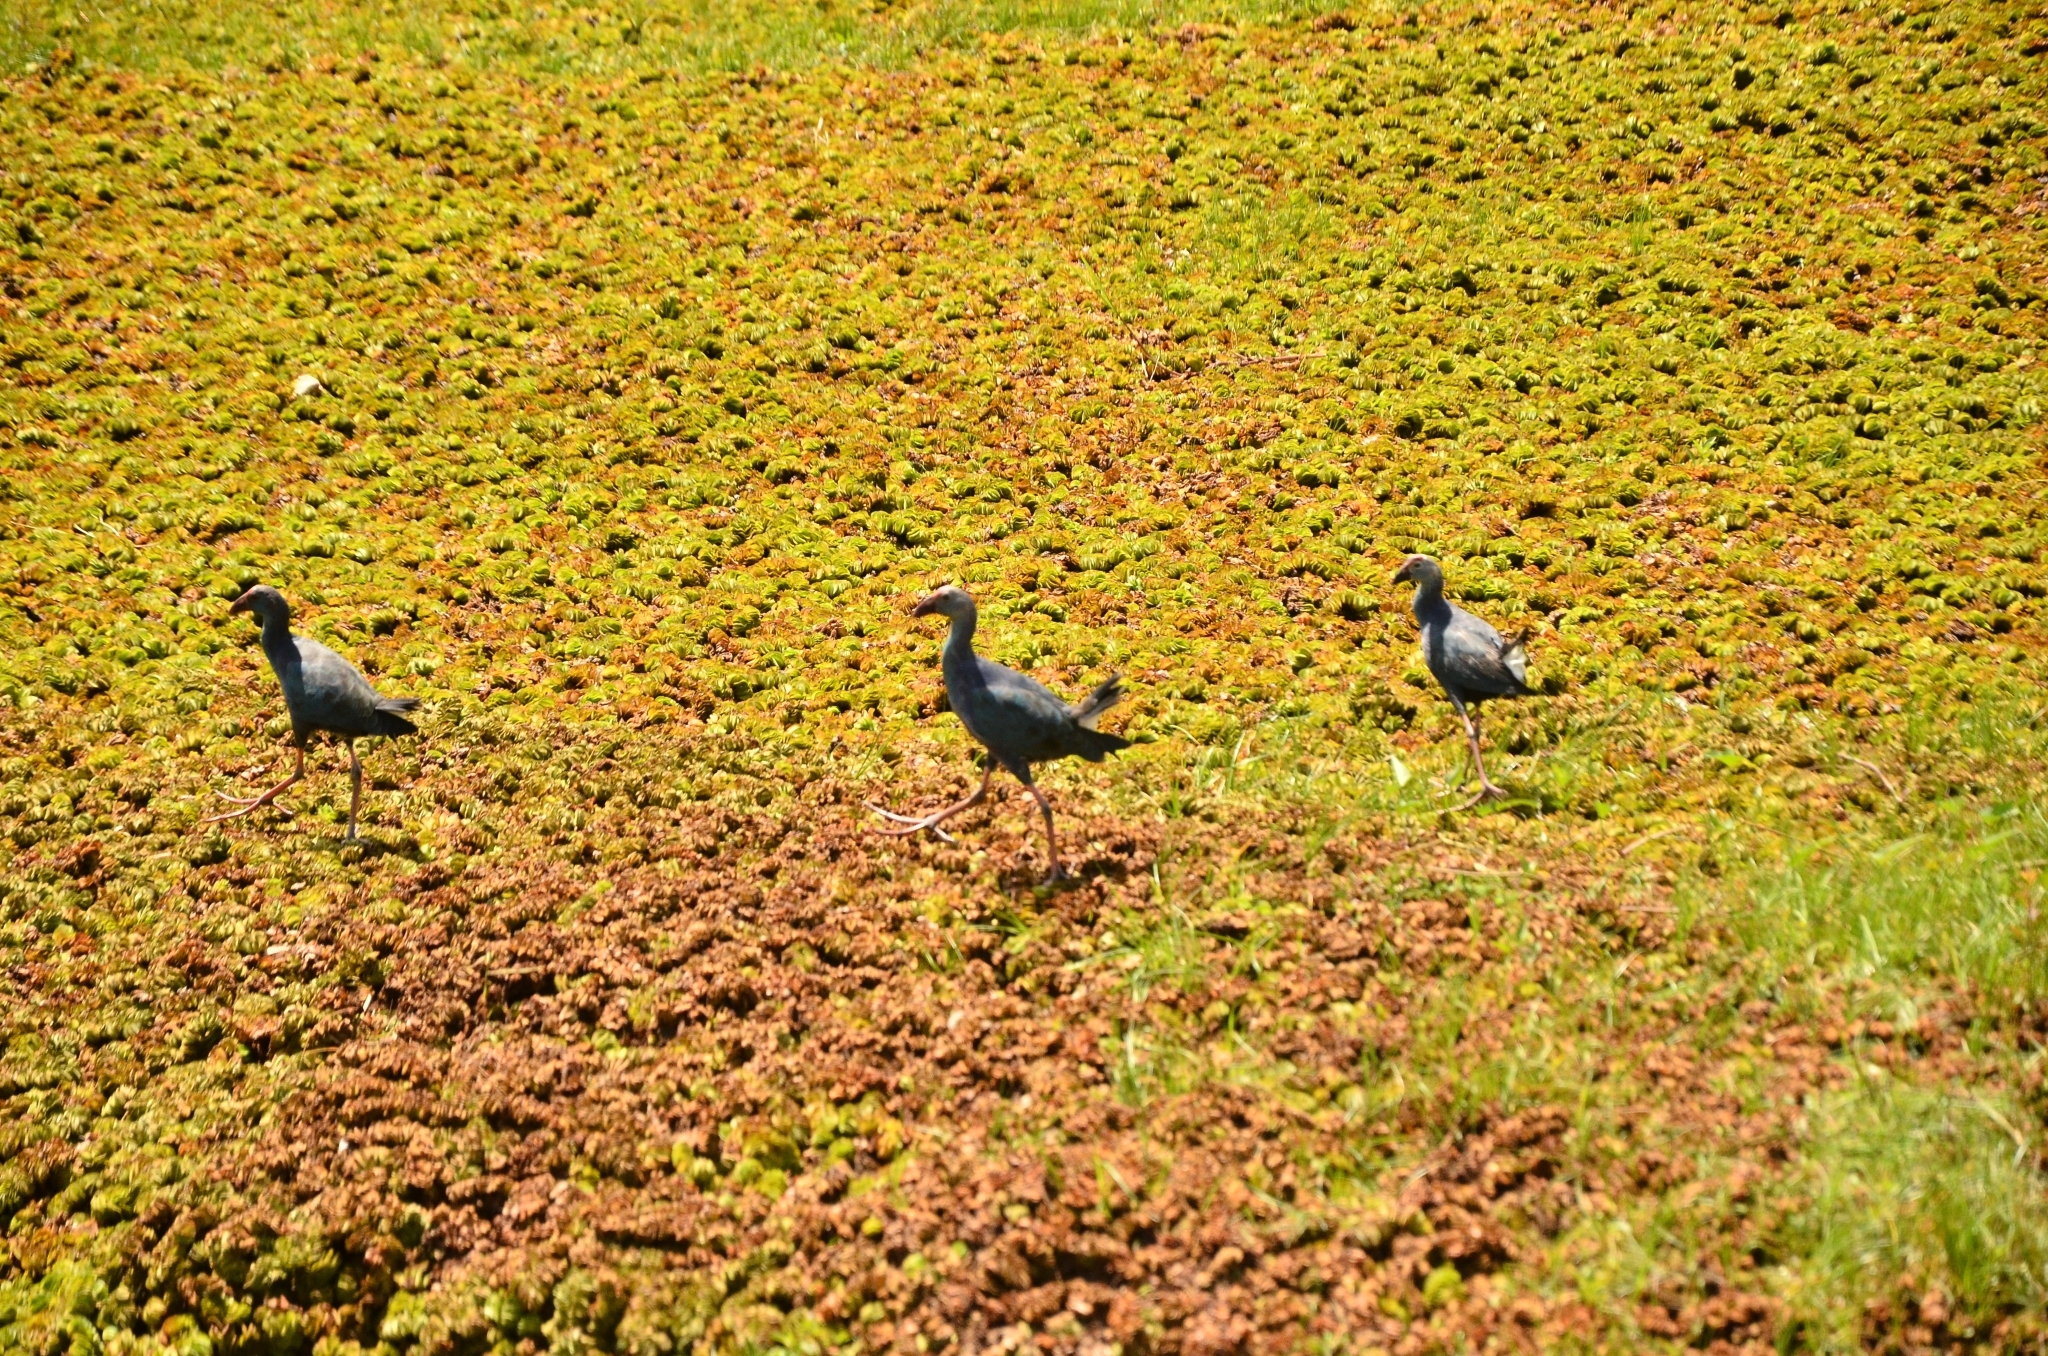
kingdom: Animalia
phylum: Chordata
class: Aves
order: Gruiformes
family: Rallidae
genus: Porphyrio
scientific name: Porphyrio porphyrio
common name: Purple swamphen
